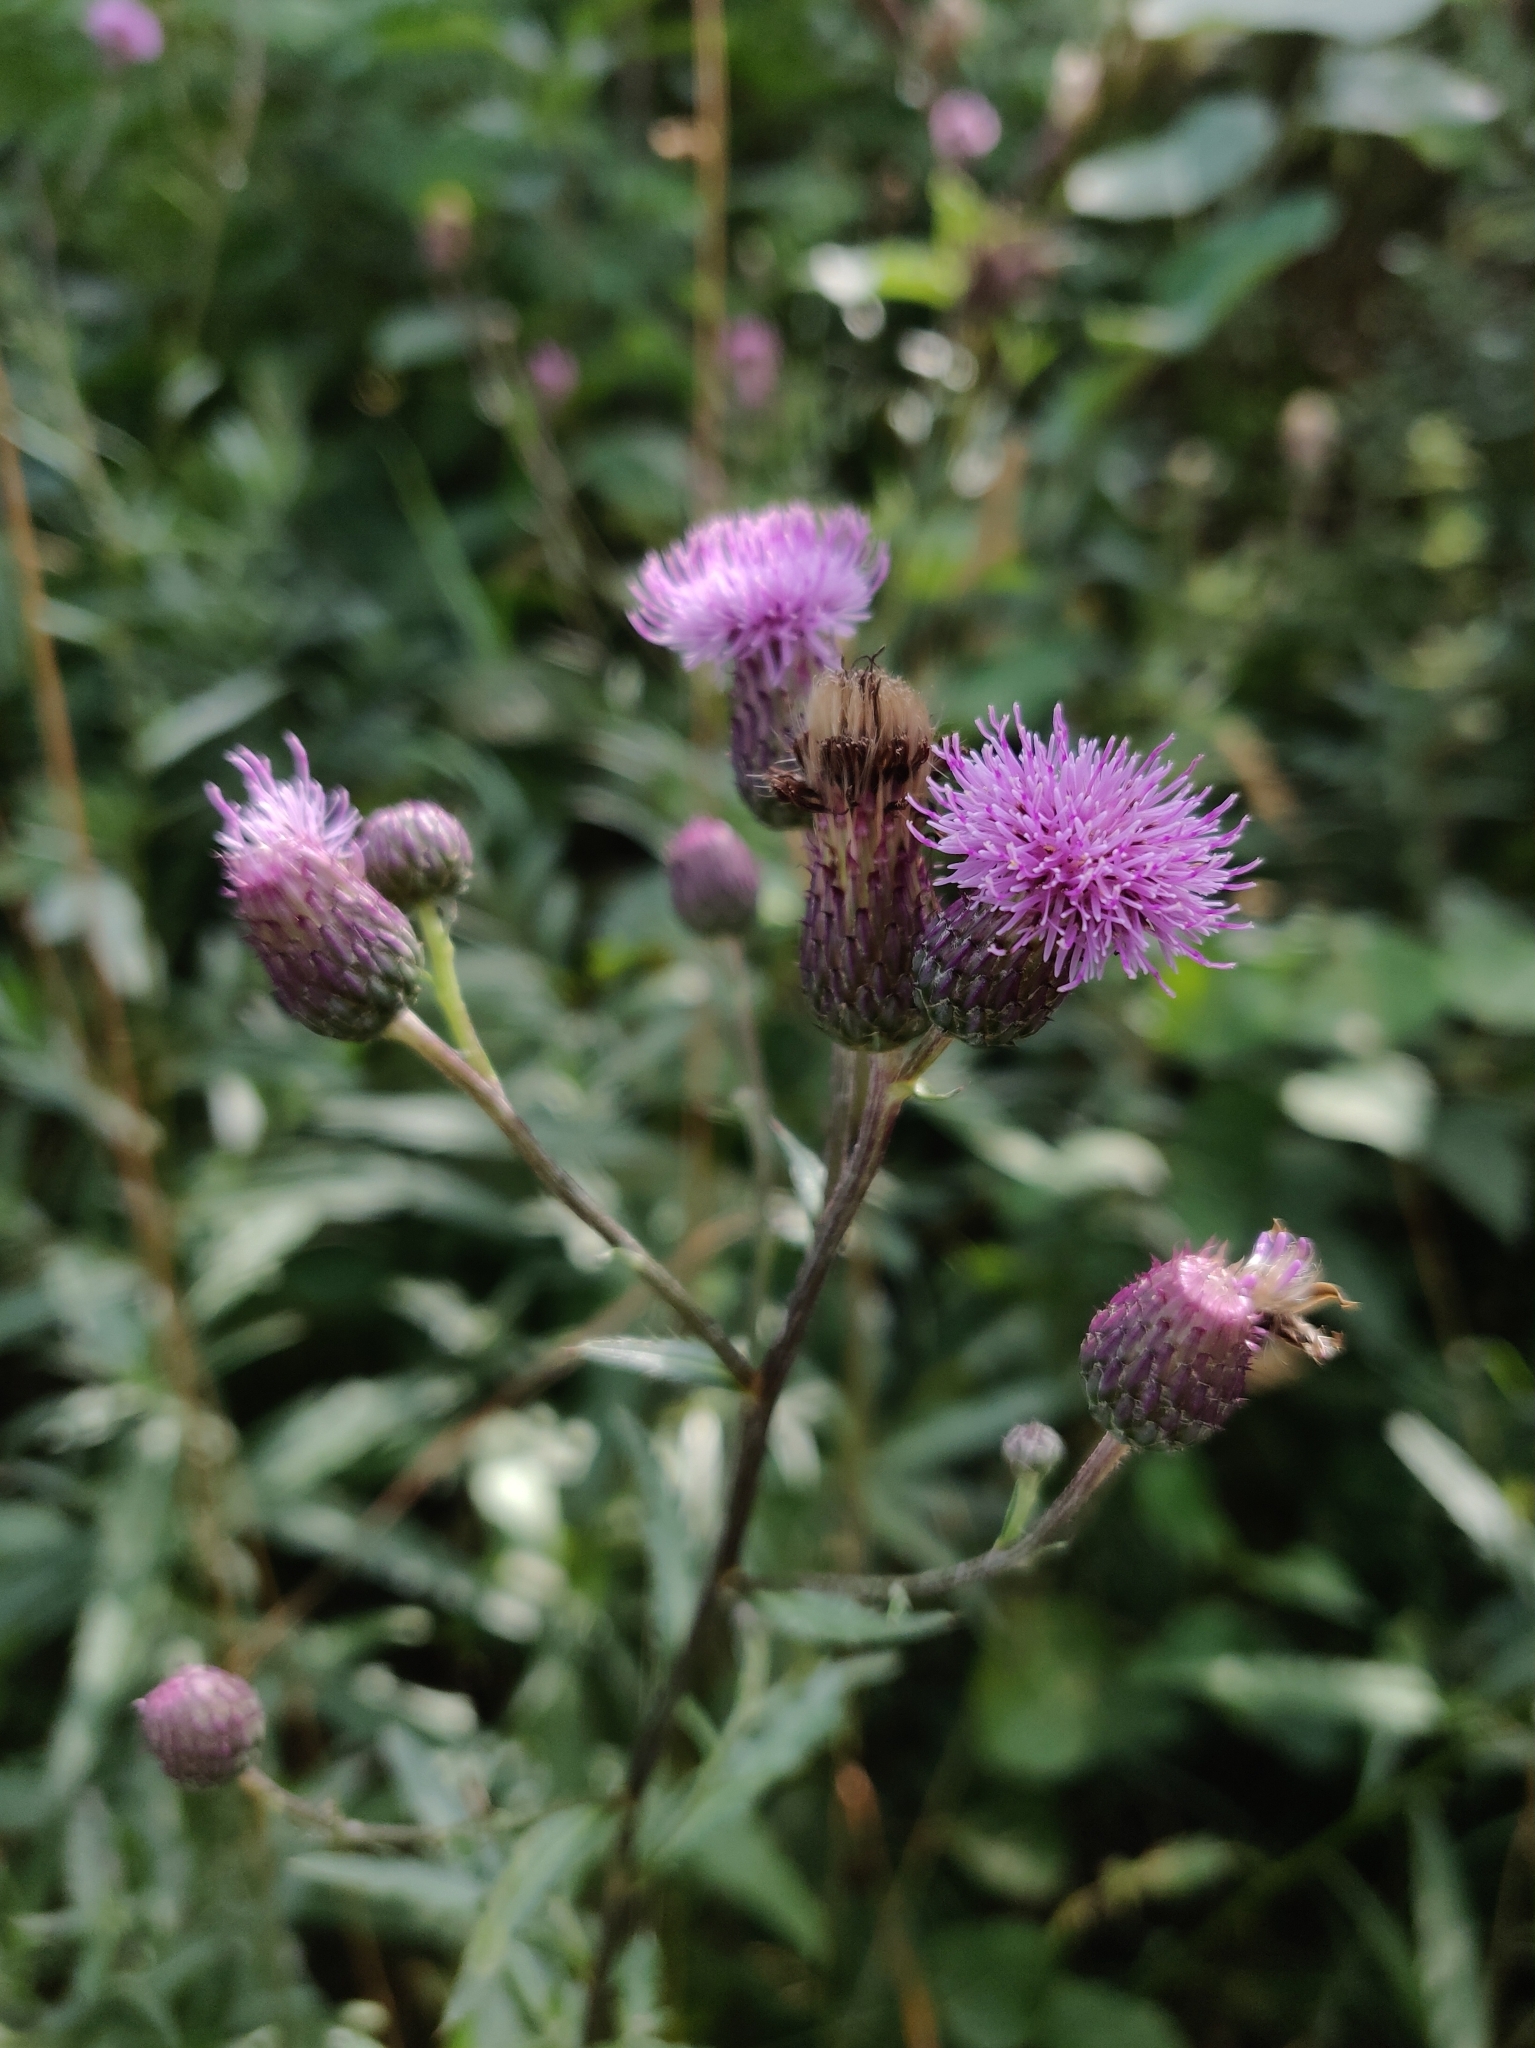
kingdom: Plantae
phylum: Tracheophyta
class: Magnoliopsida
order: Asterales
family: Asteraceae
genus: Cirsium
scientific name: Cirsium arvense
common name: Creeping thistle
